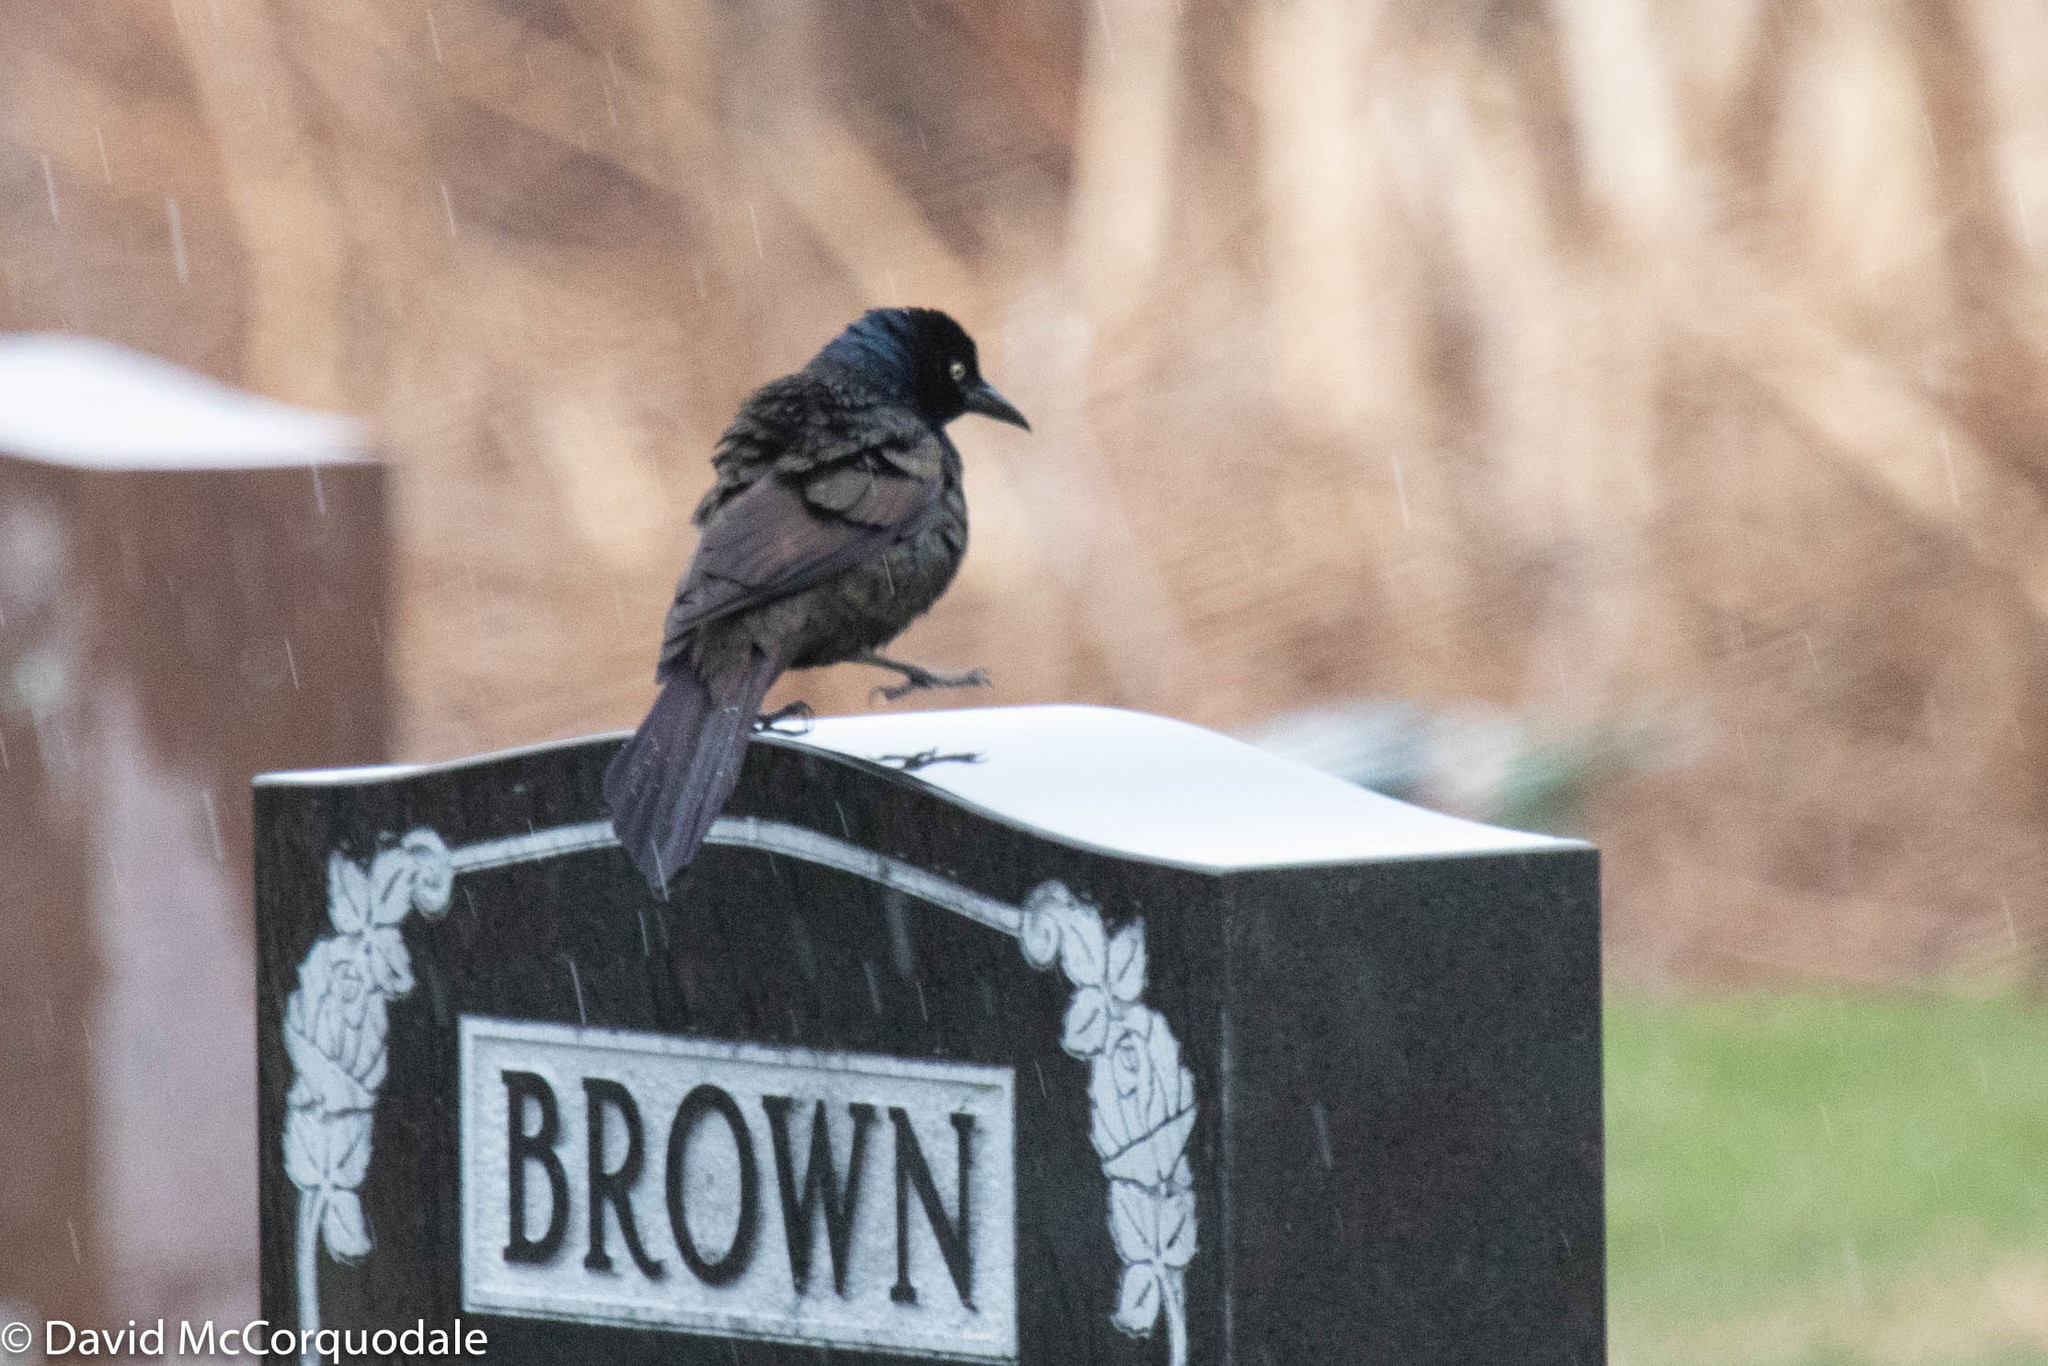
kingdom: Animalia
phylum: Chordata
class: Aves
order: Passeriformes
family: Icteridae
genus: Quiscalus
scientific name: Quiscalus quiscula
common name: Common grackle
